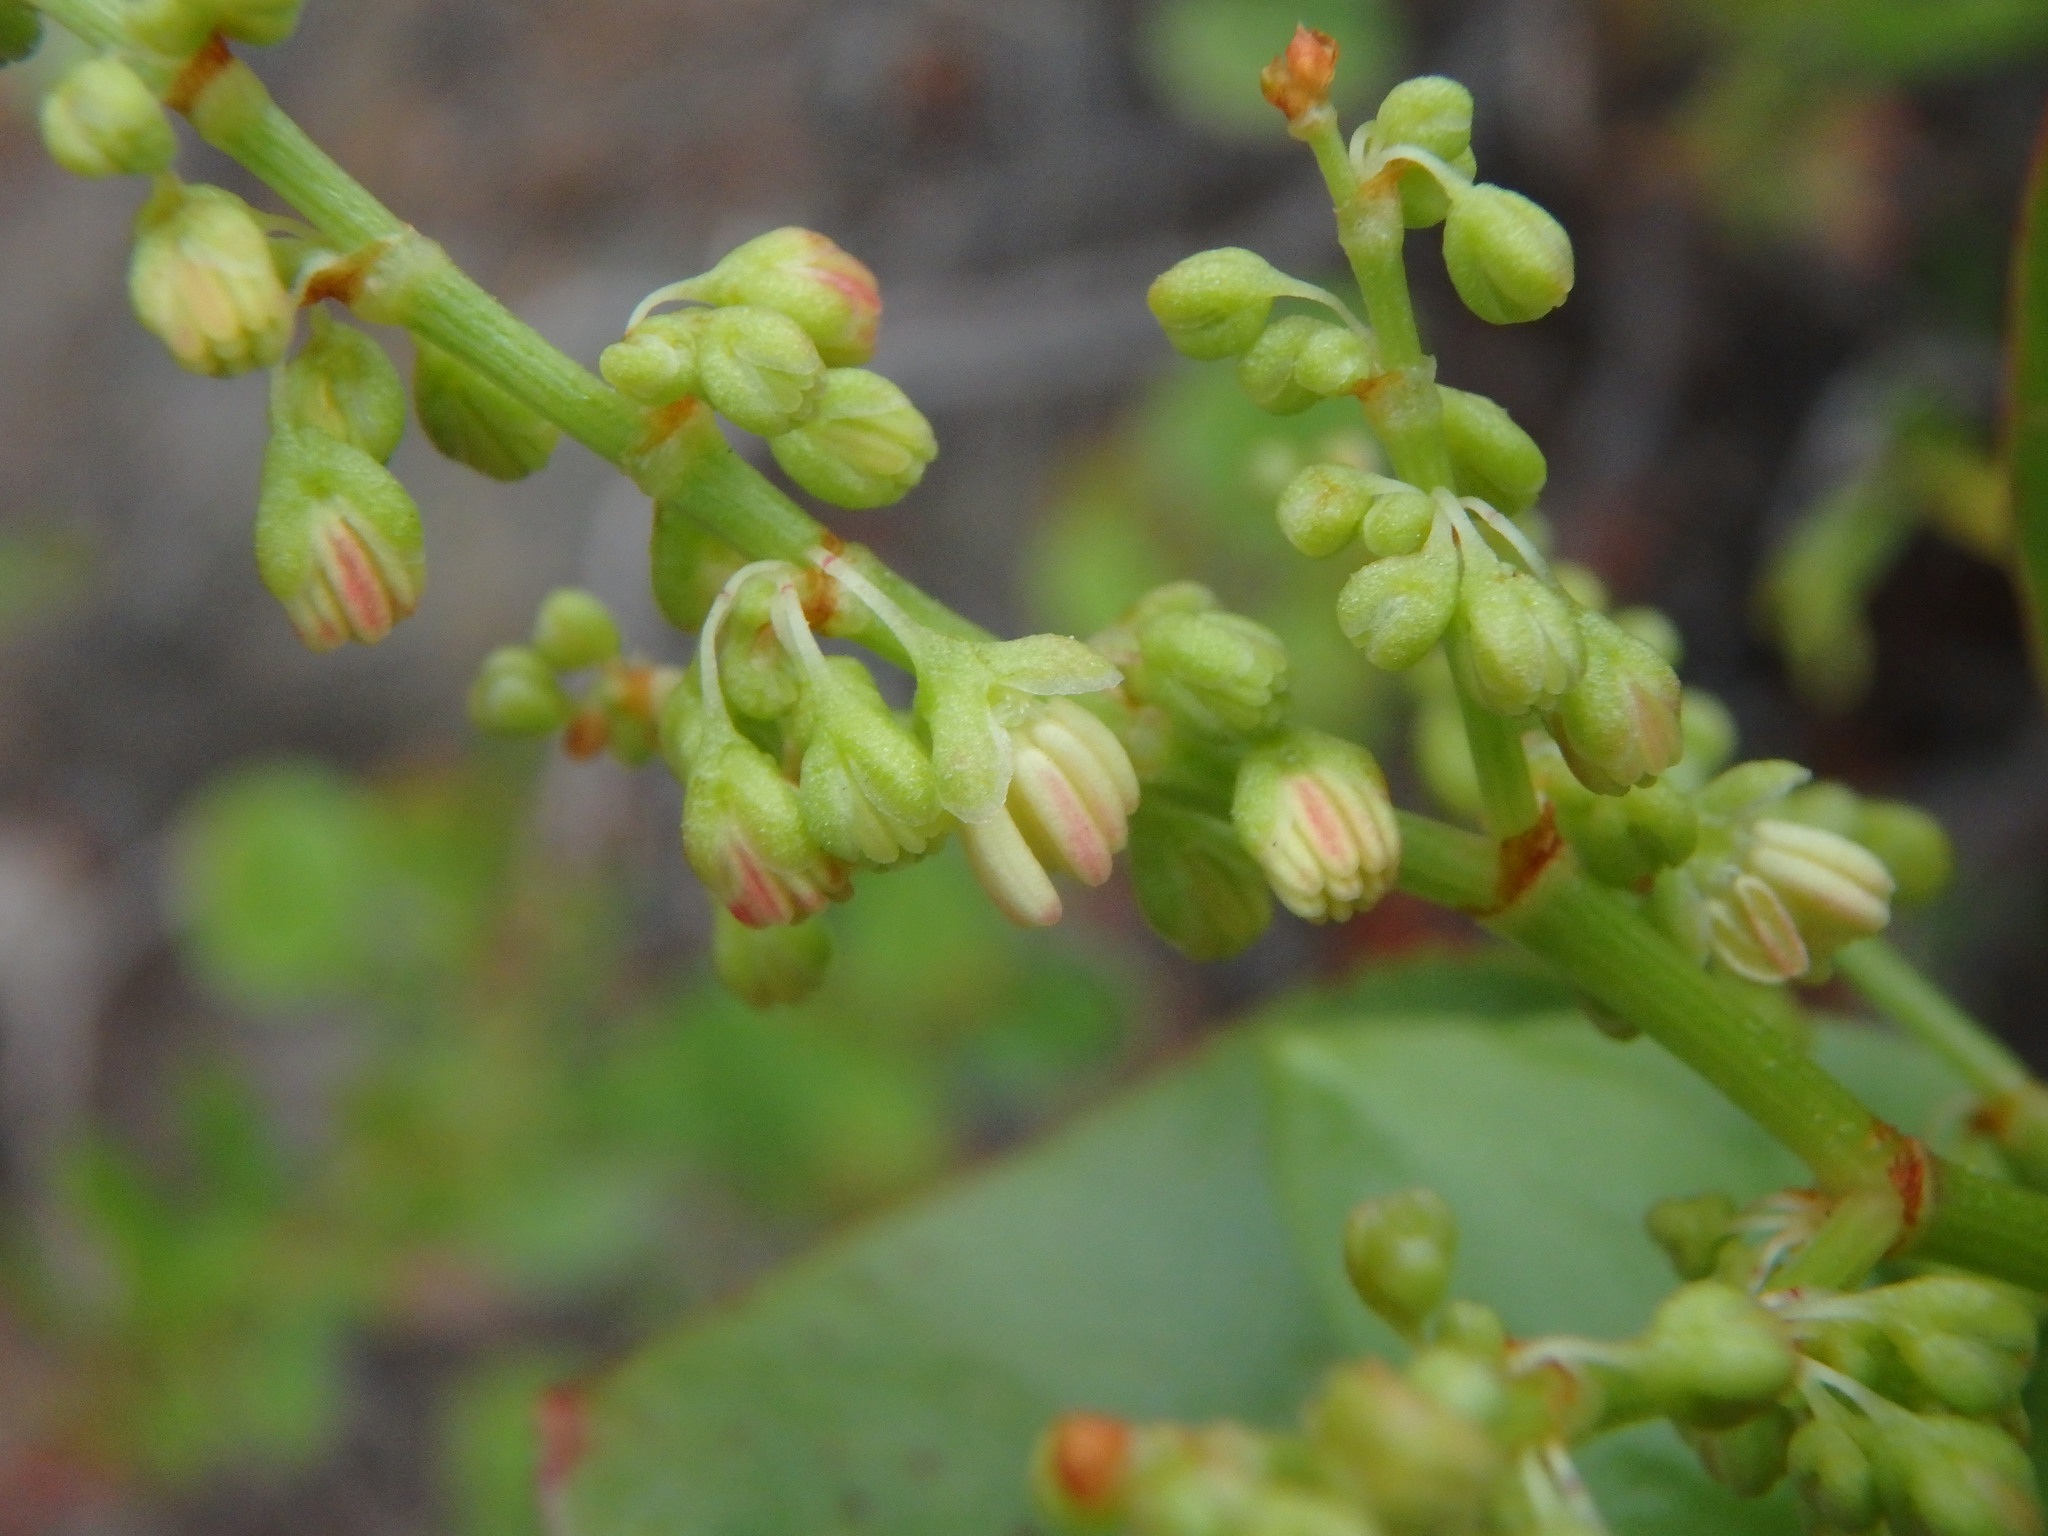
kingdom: Plantae
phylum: Tracheophyta
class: Magnoliopsida
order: Caryophyllales
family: Polygonaceae
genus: Rumex
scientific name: Rumex lunaria
